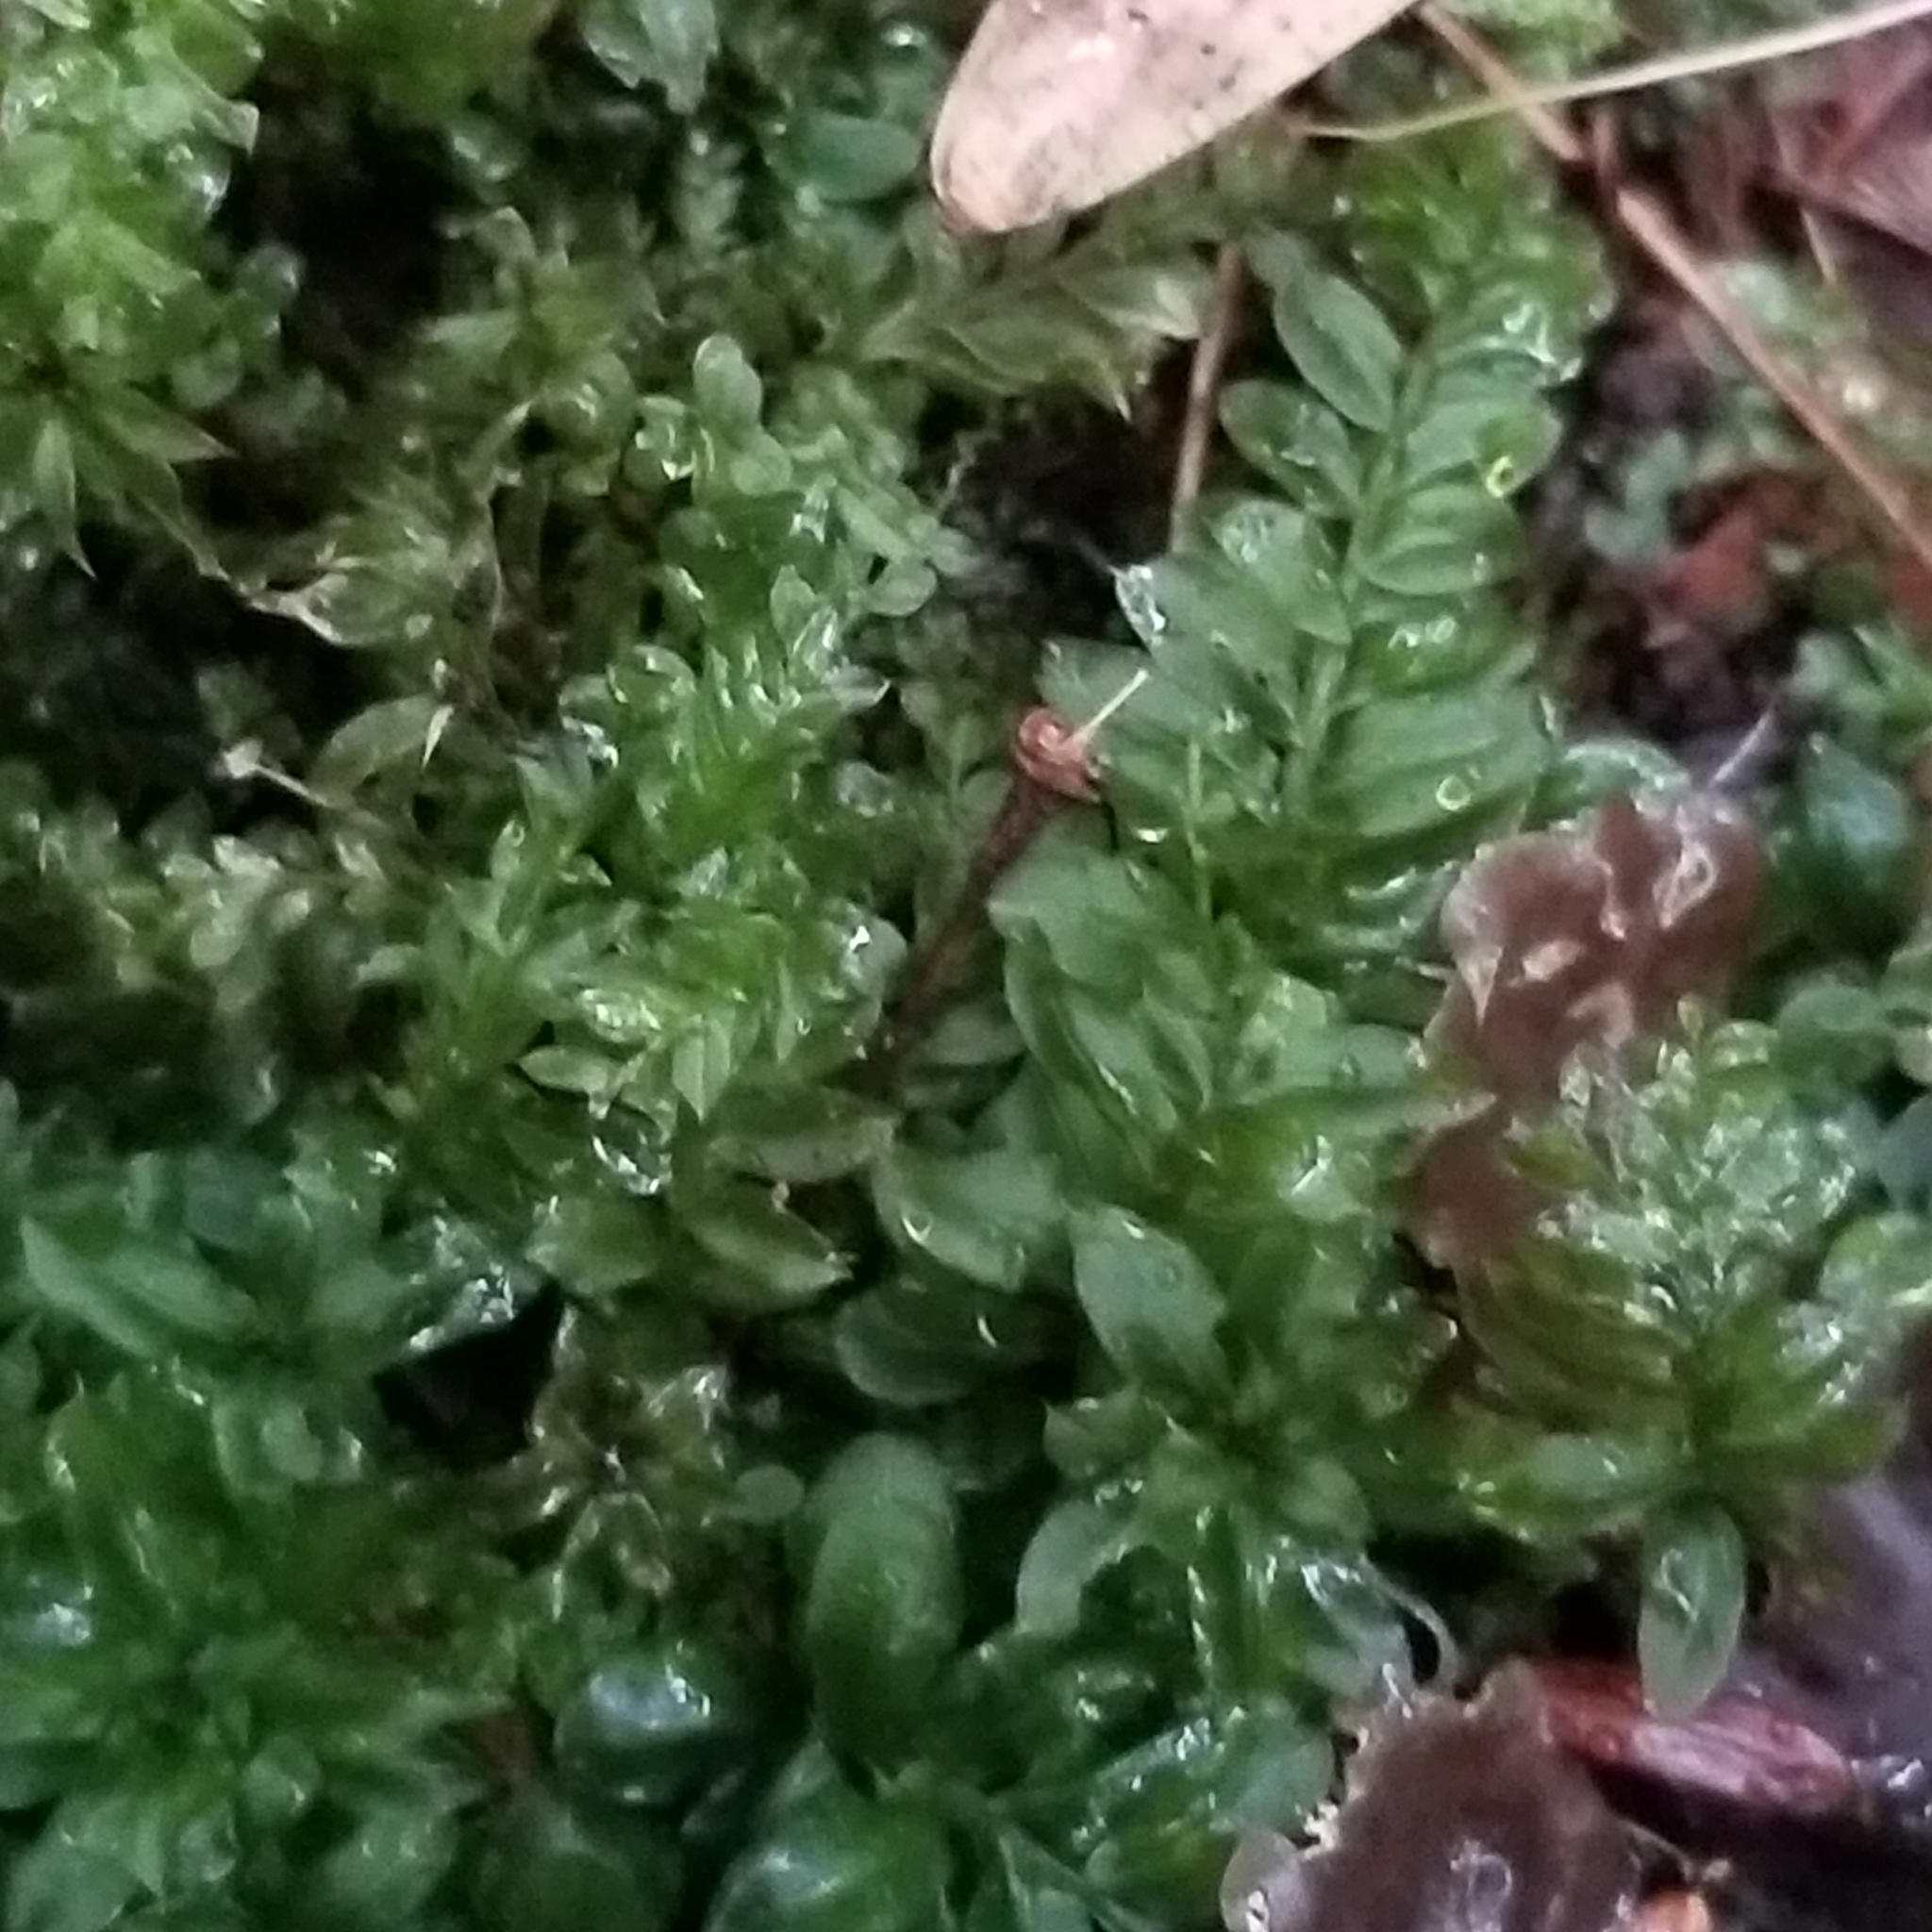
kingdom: Plantae
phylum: Bryophyta
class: Bryopsida
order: Bryales
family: Mniaceae
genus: Plagiomnium
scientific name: Plagiomnium cuspidatum
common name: Woodsy leafy moss
